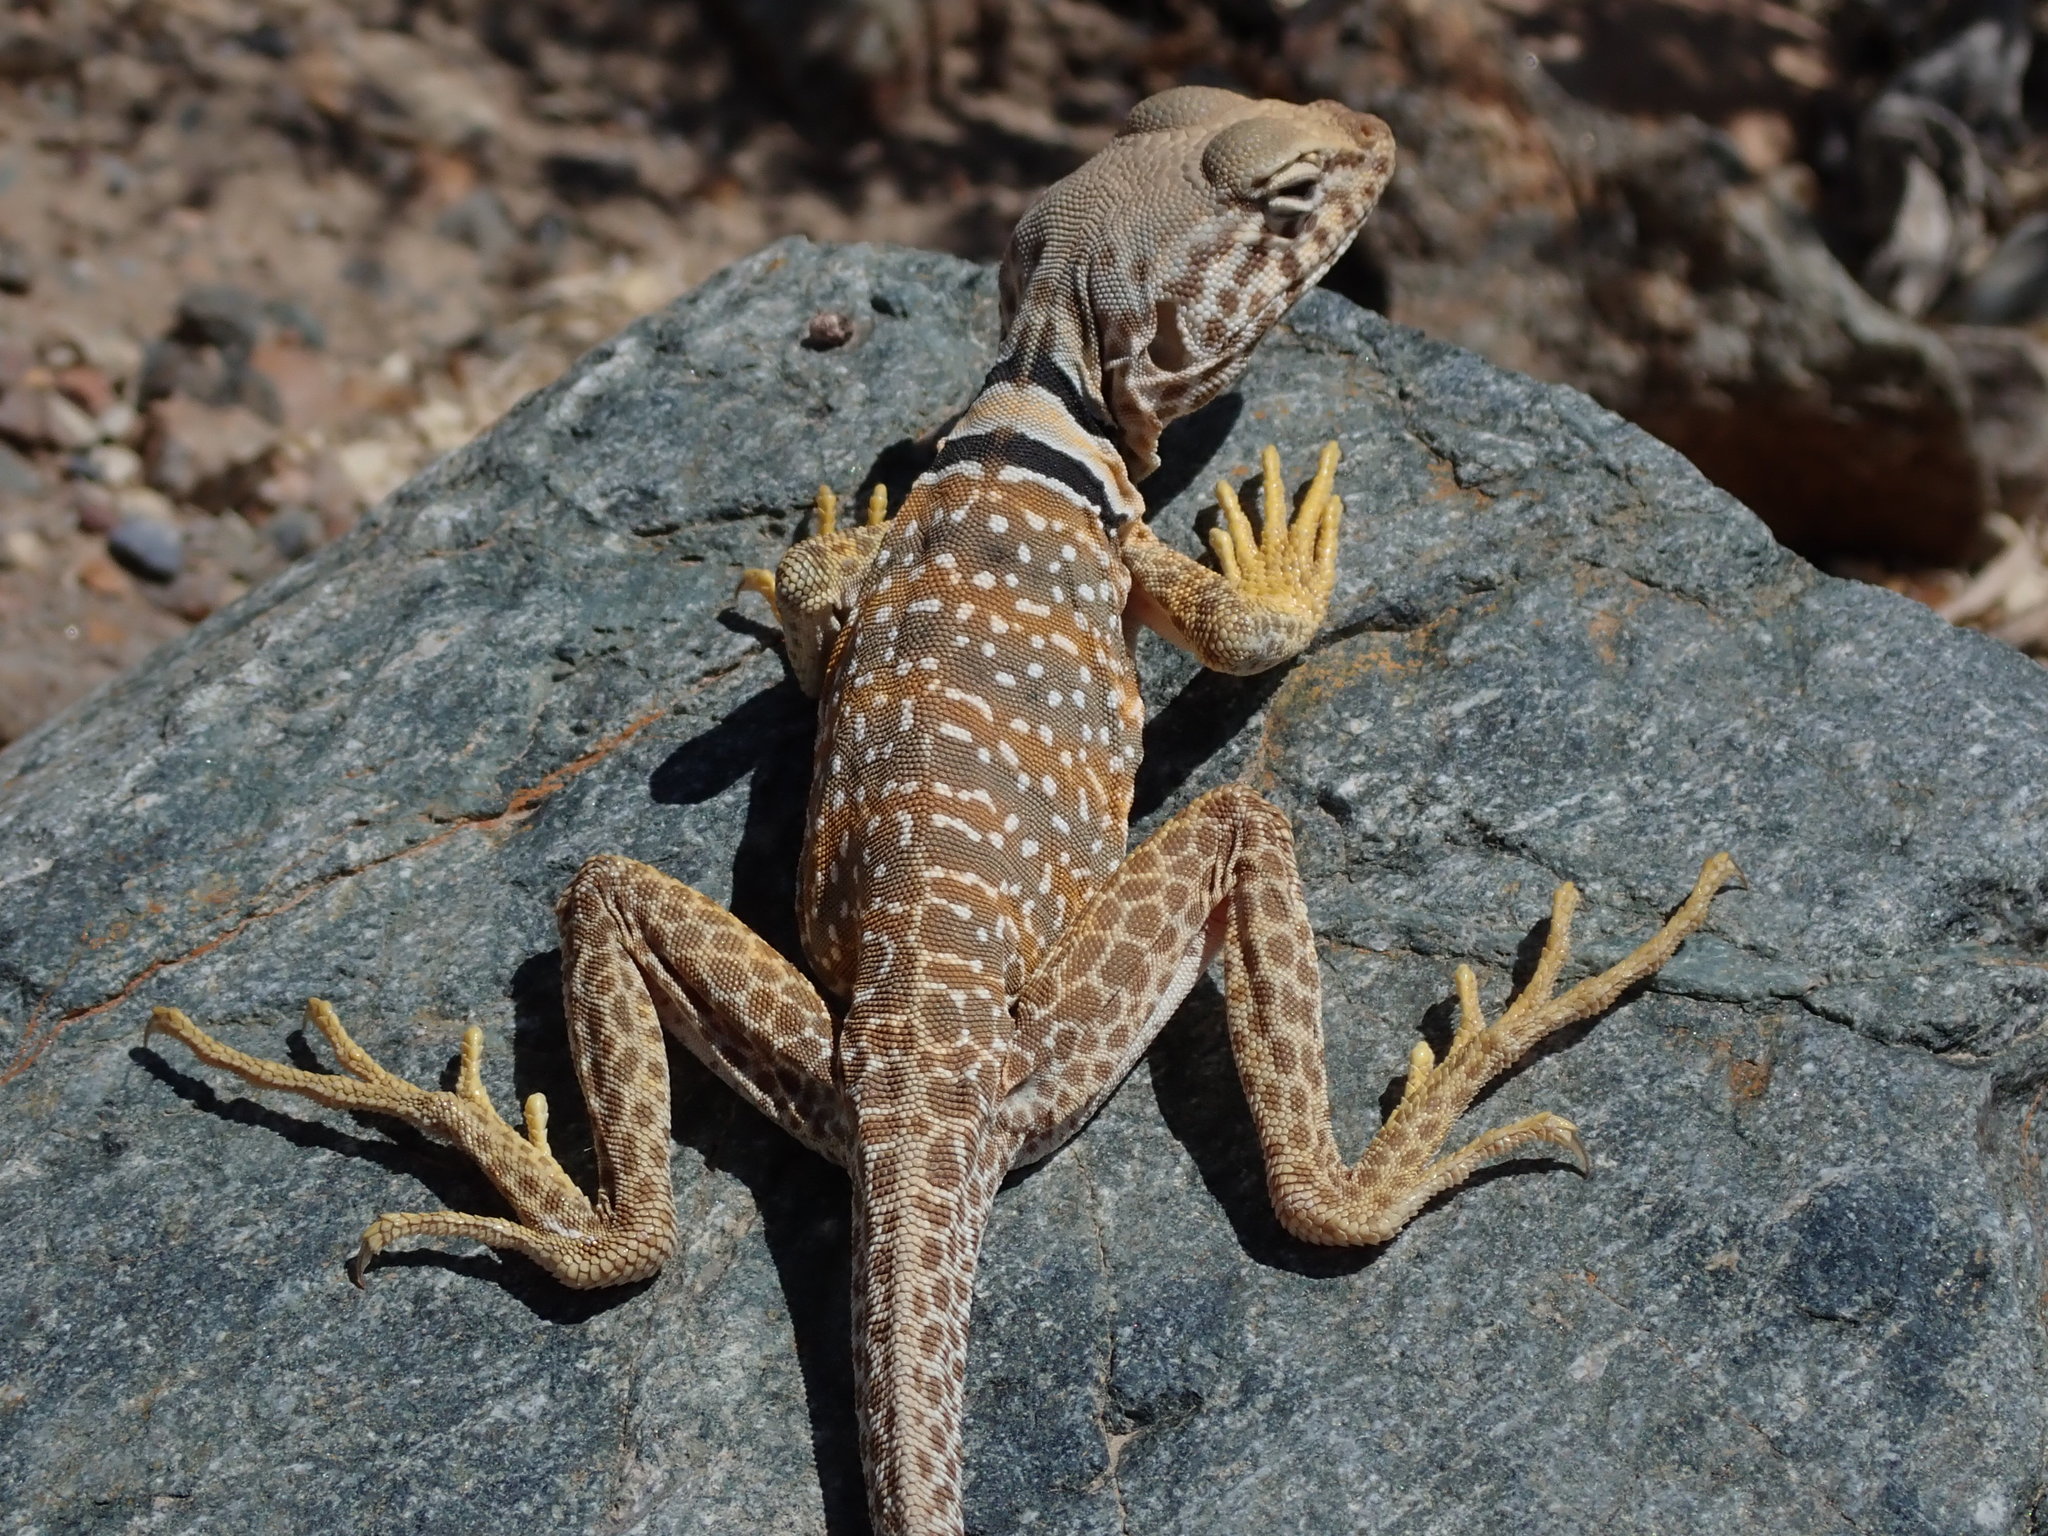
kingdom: Animalia
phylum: Chordata
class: Squamata
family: Crotaphytidae
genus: Crotaphytus
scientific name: Crotaphytus bicinctores
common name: Mojave black-collared lizard
